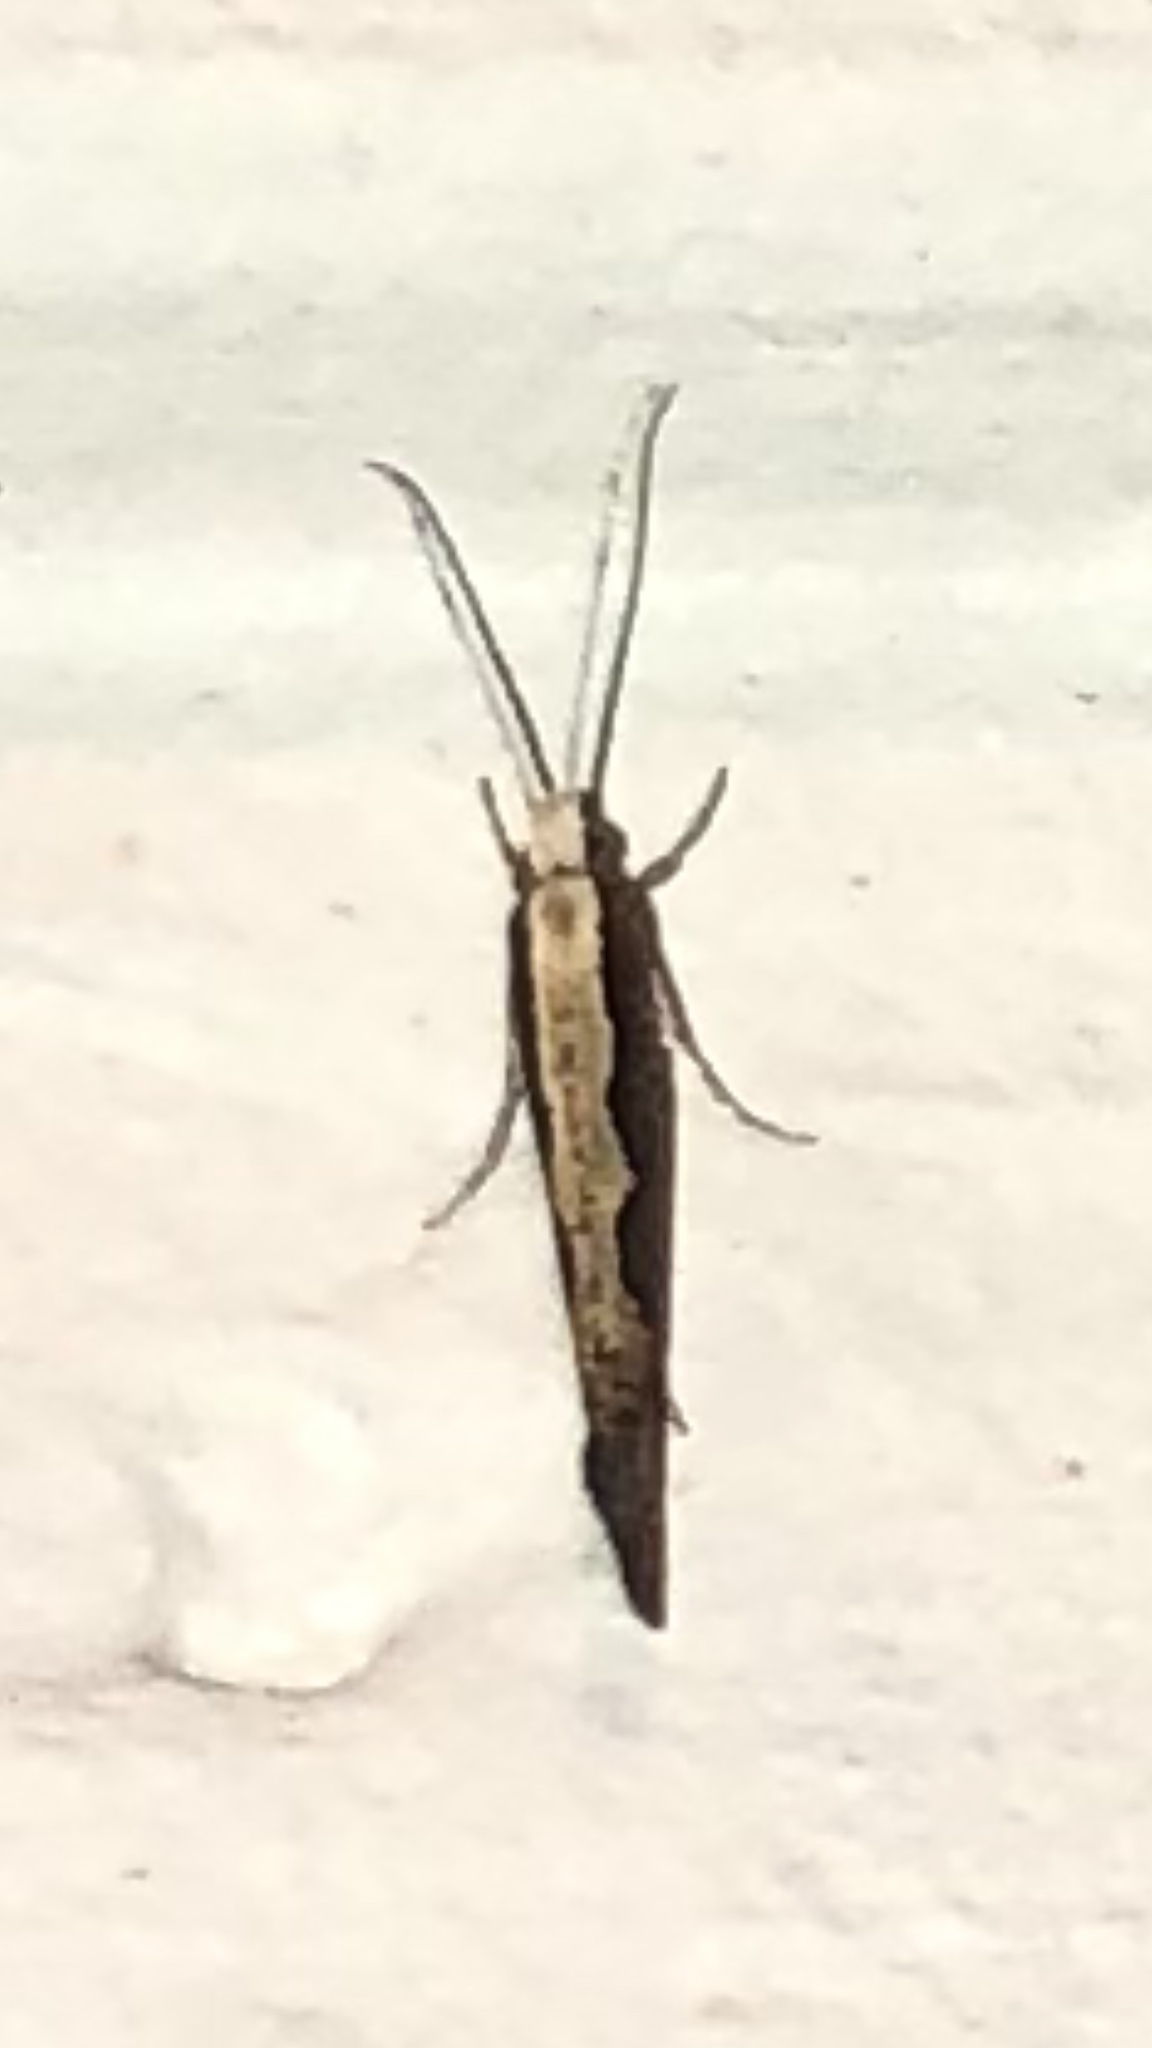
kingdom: Animalia
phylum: Arthropoda
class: Insecta
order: Lepidoptera
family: Plutellidae
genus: Plutella
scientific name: Plutella xylostella
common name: Diamond-back moth
